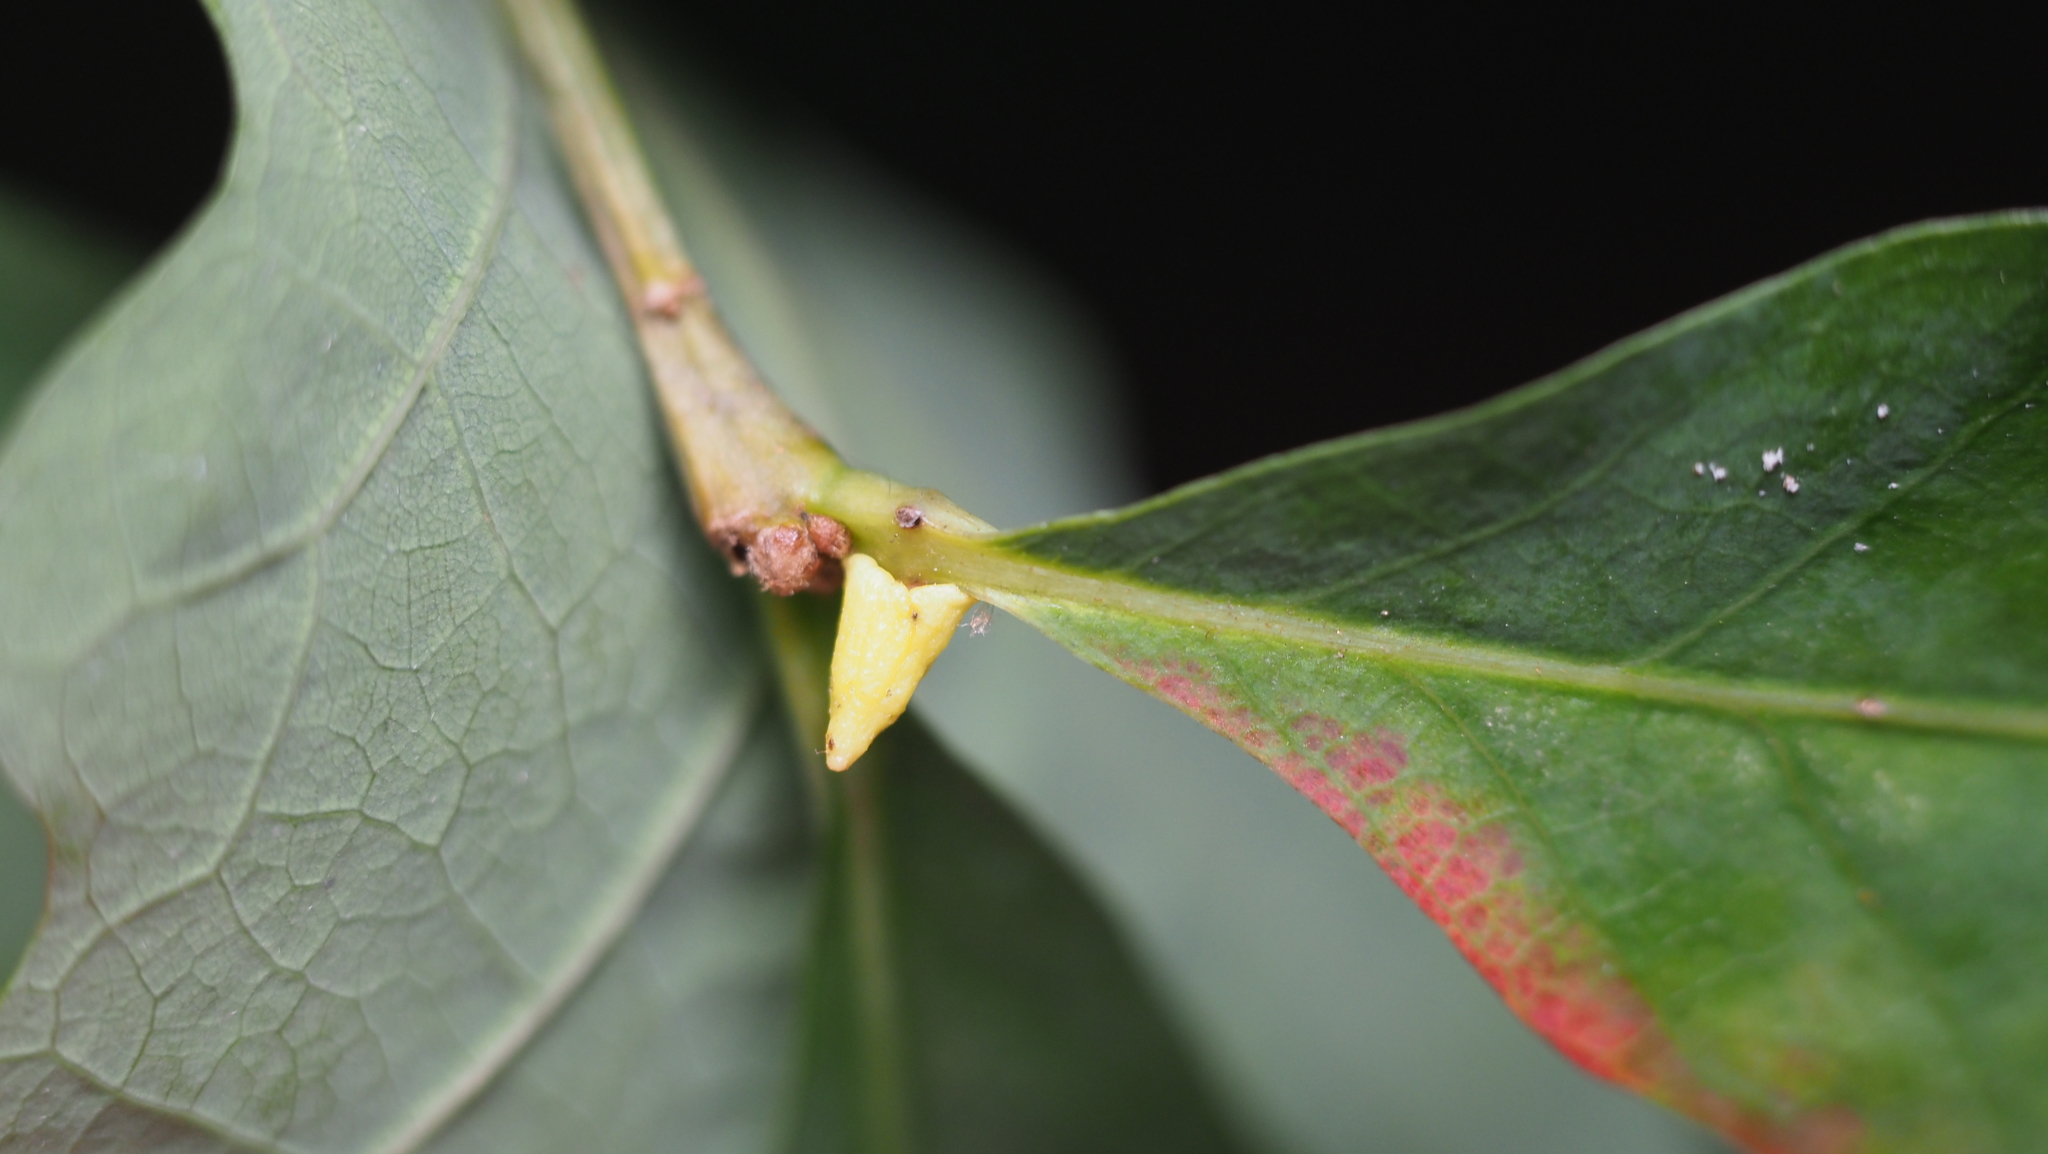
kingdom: Animalia
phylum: Arthropoda
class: Insecta
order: Hymenoptera
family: Cynipidae
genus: Zopheroteras
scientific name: Zopheroteras
